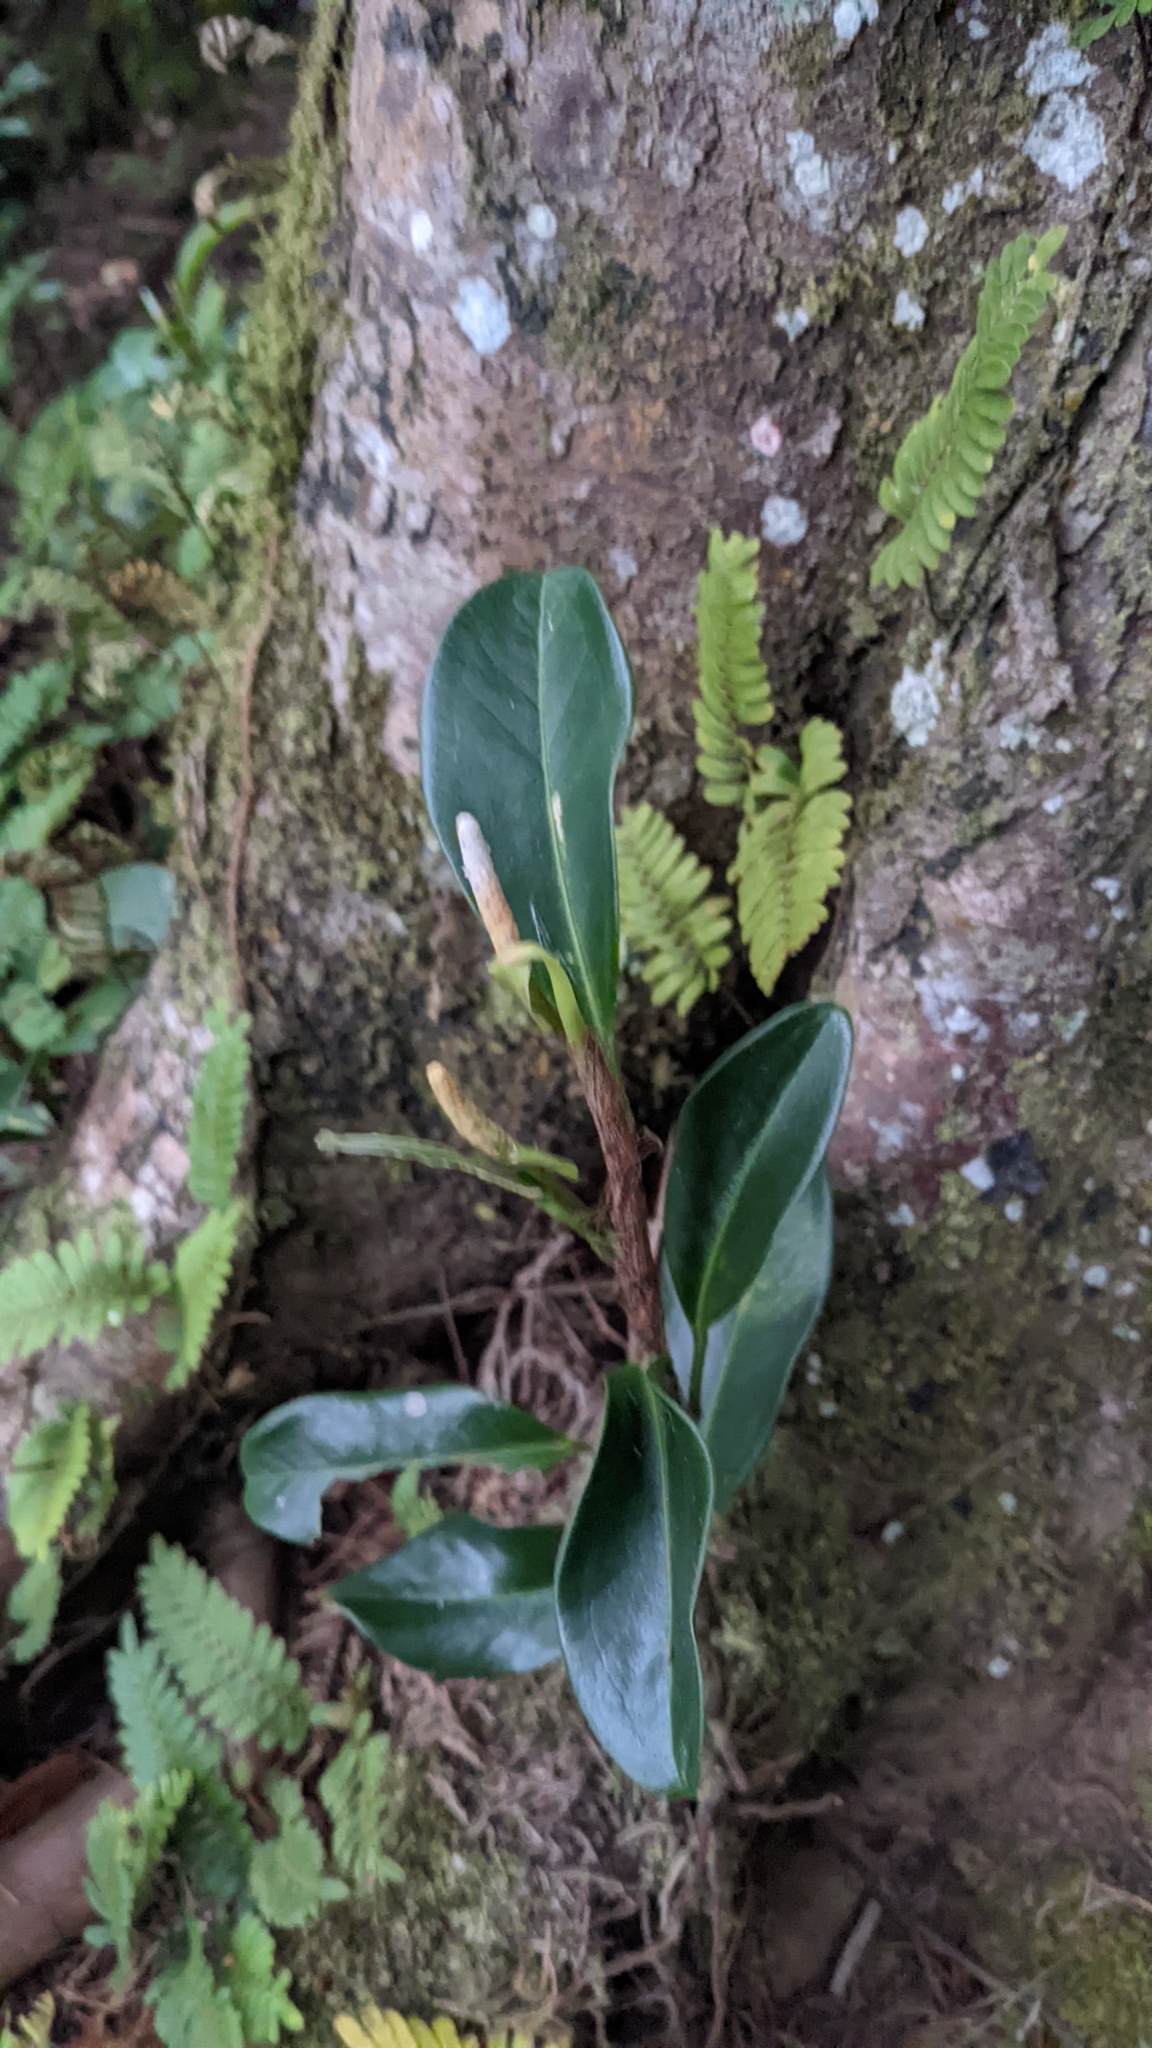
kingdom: Plantae
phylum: Tracheophyta
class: Liliopsida
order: Alismatales
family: Araceae
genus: Anthurium
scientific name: Anthurium scandens
